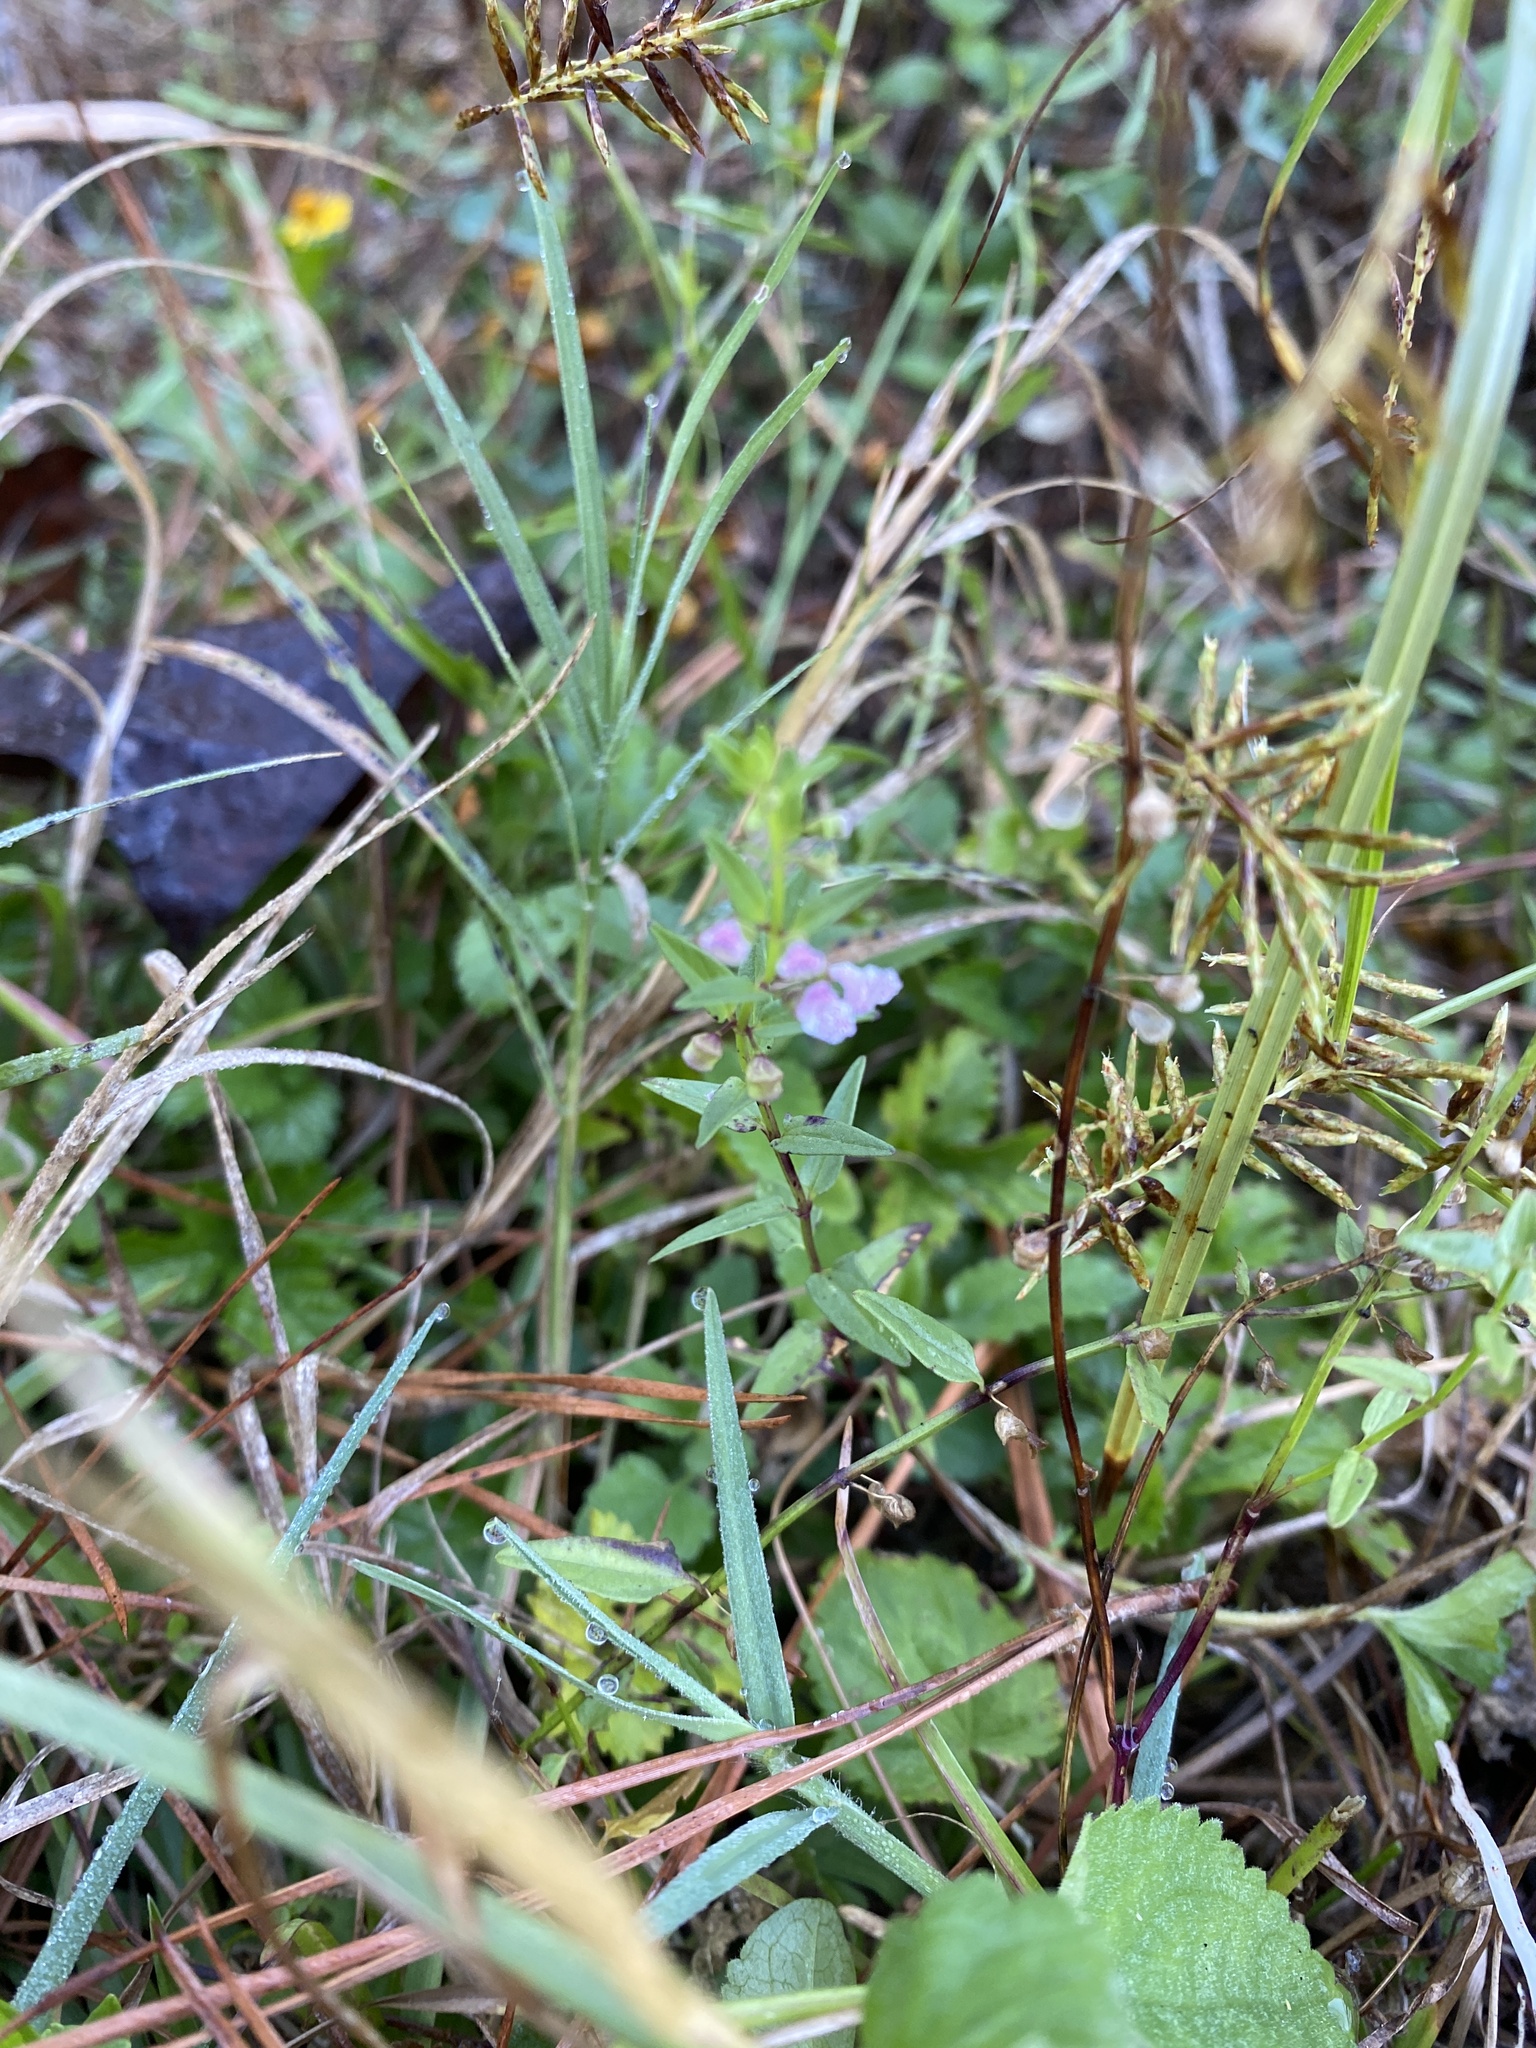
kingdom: Plantae
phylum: Tracheophyta
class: Magnoliopsida
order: Lamiales
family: Lamiaceae
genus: Scutellaria
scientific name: Scutellaria racemosa
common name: South american skullcap
